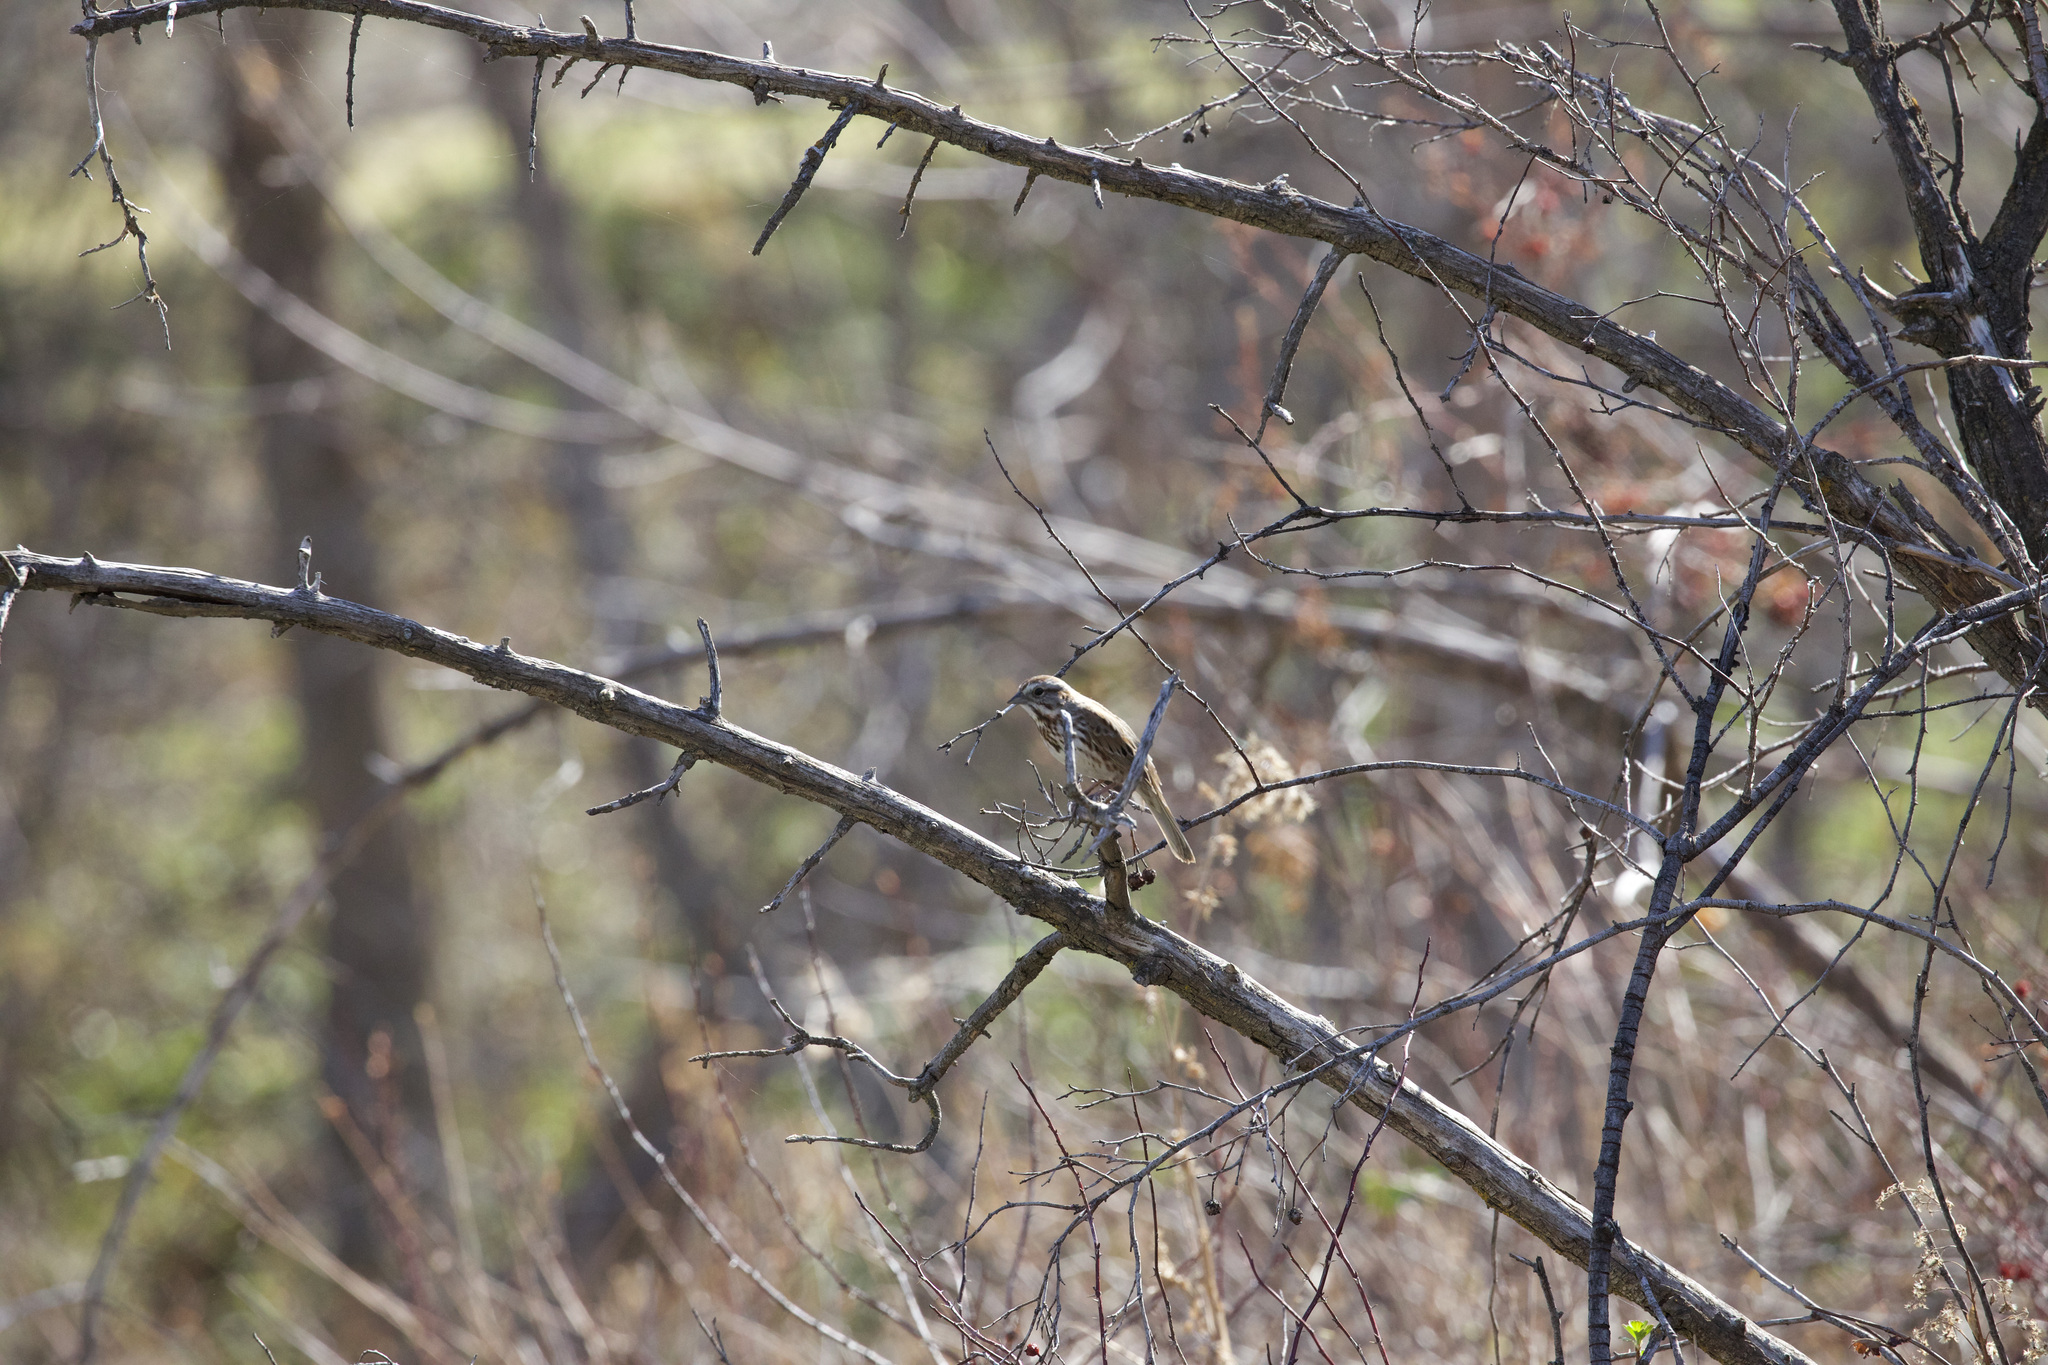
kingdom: Animalia
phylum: Chordata
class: Aves
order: Passeriformes
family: Passerellidae
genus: Zonotrichia
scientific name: Zonotrichia leucophrys
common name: White-crowned sparrow
